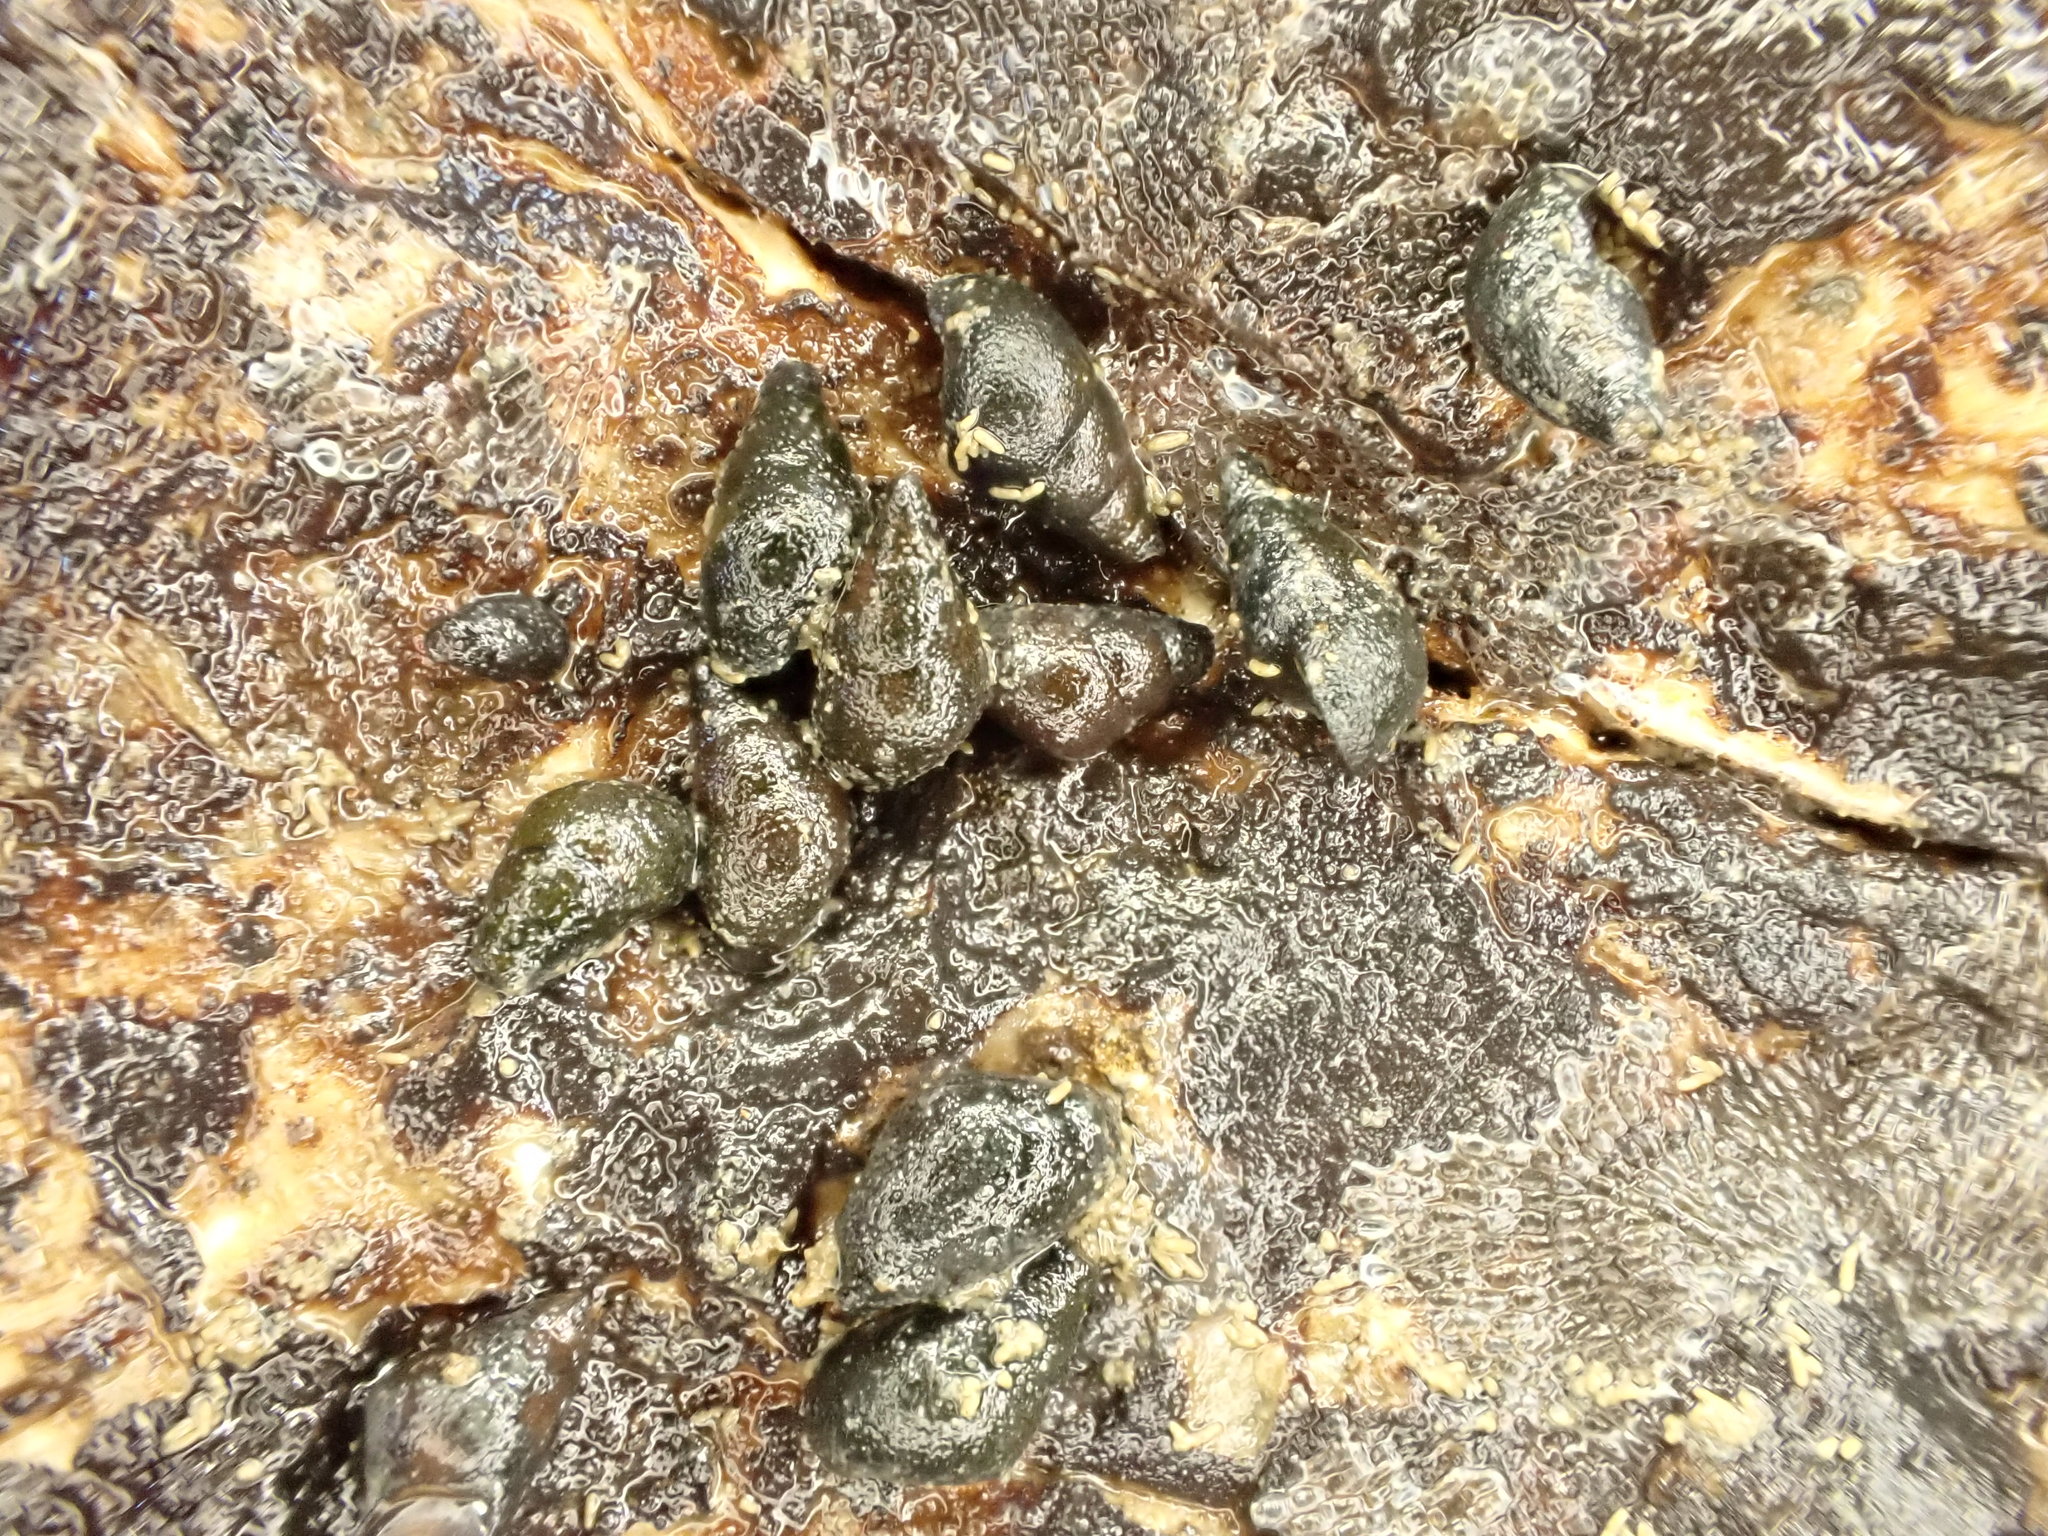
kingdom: Animalia
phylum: Mollusca
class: Gastropoda
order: Littorinimorpha
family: Tateidae
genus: Potamopyrgus
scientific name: Potamopyrgus estuarinus
